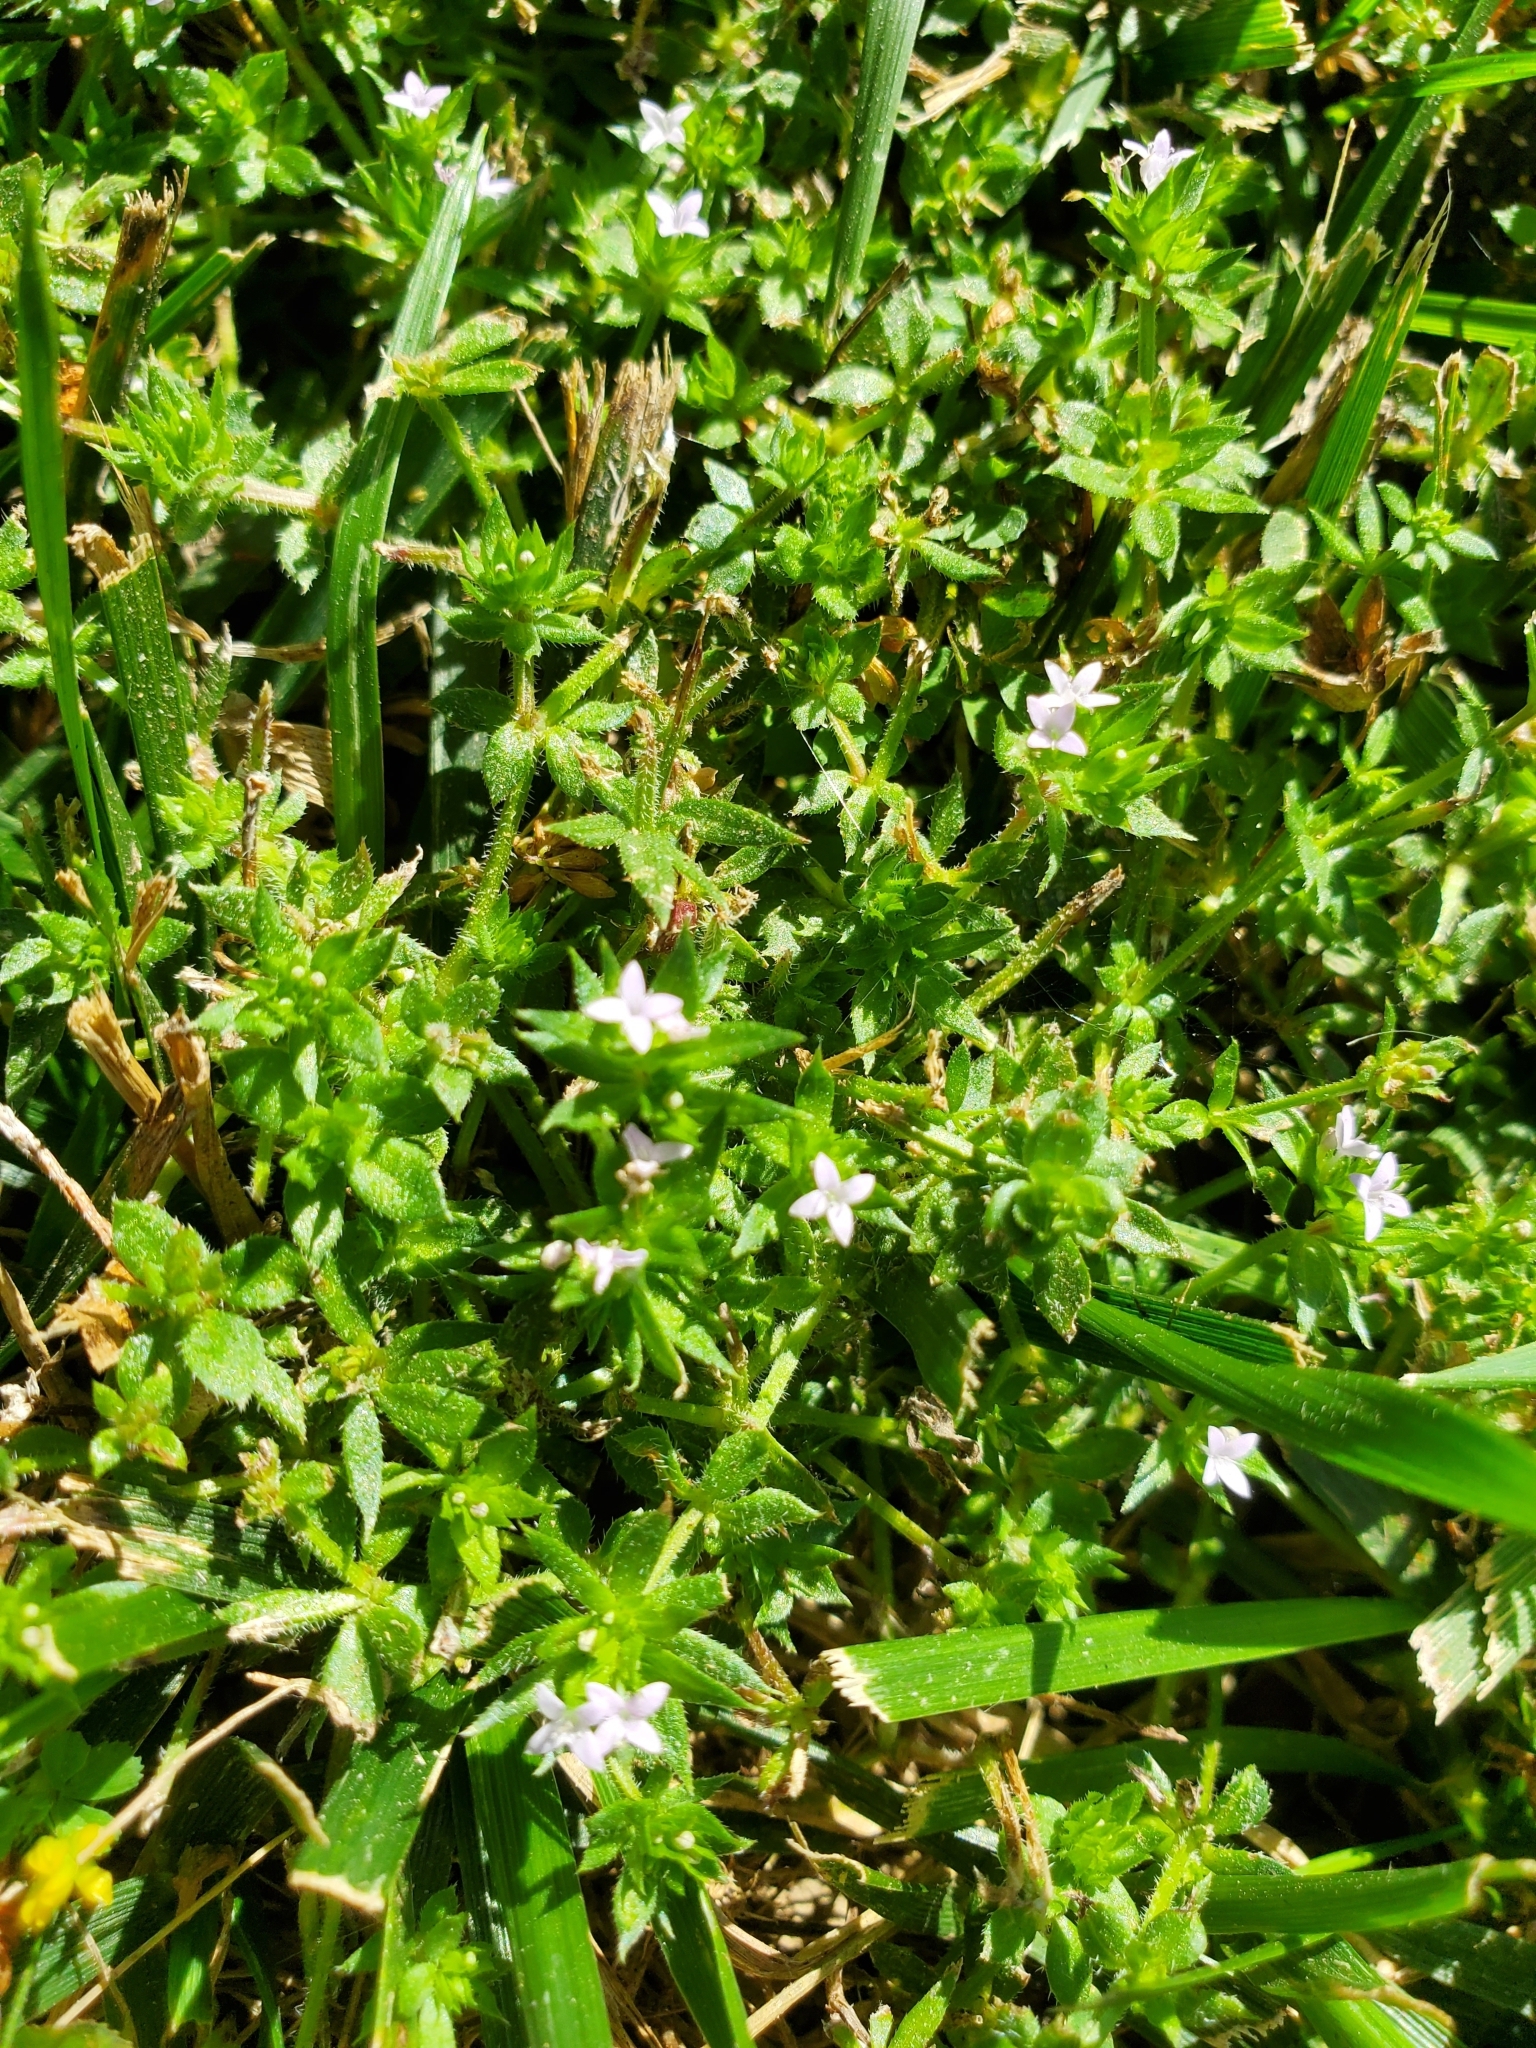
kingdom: Plantae
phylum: Tracheophyta
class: Magnoliopsida
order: Gentianales
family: Rubiaceae
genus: Sherardia
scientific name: Sherardia arvensis
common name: Field madder
